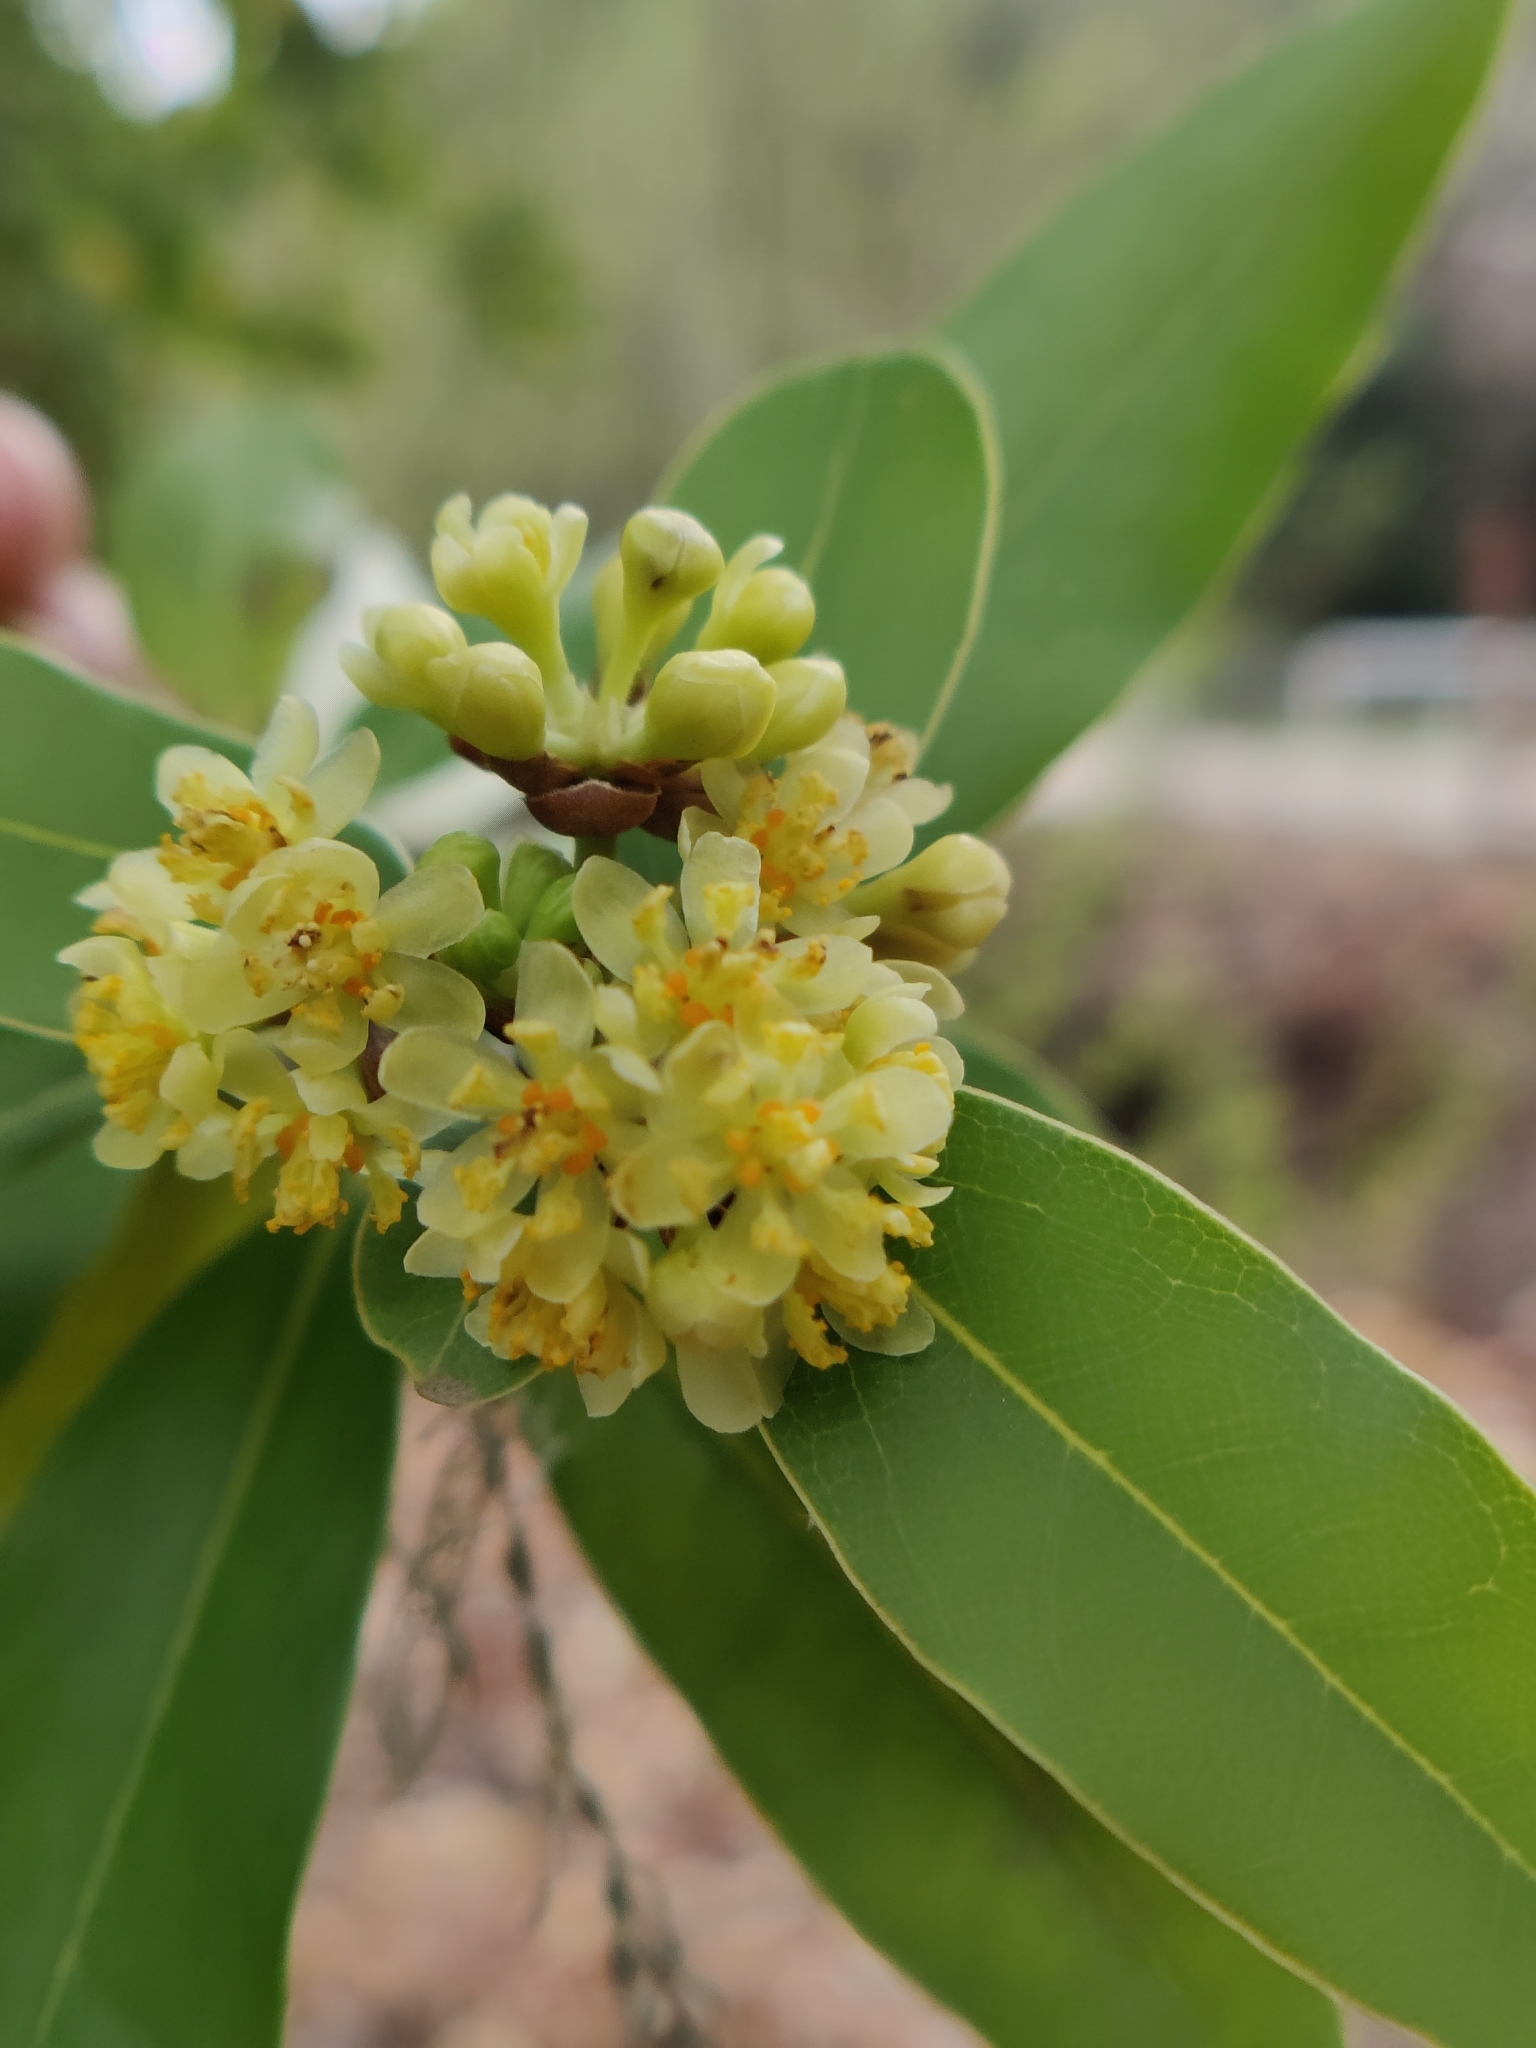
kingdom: Plantae
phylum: Tracheophyta
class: Magnoliopsida
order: Laurales
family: Lauraceae
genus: Umbellularia
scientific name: Umbellularia californica
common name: California bay
